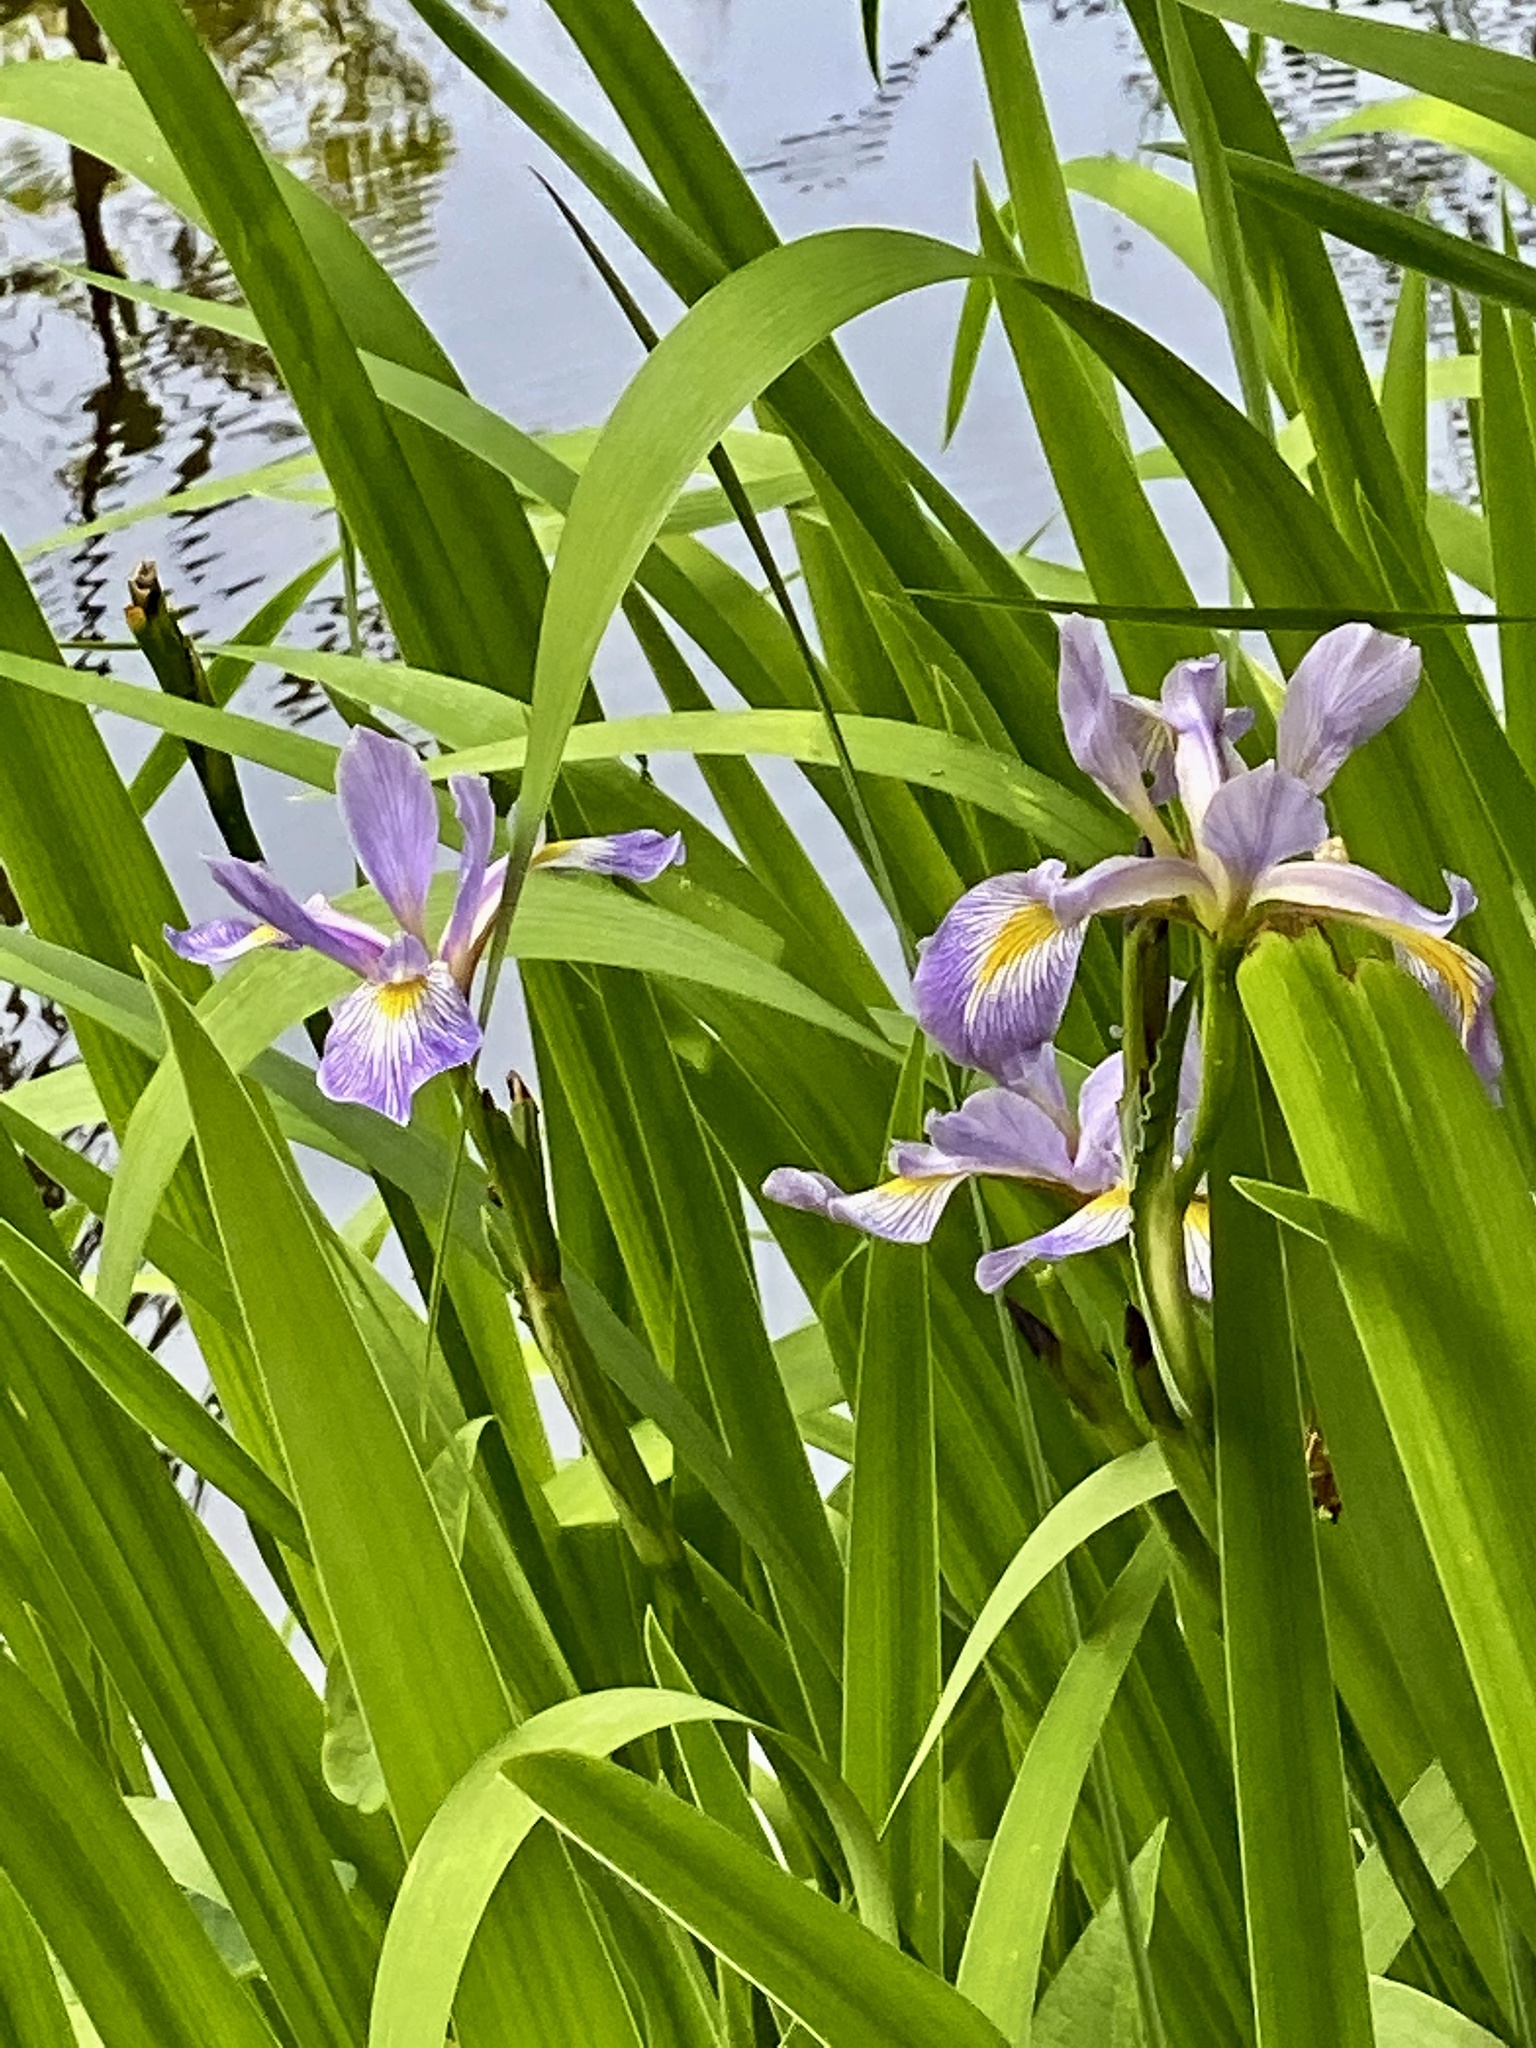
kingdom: Plantae
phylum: Tracheophyta
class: Liliopsida
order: Asparagales
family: Iridaceae
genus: Iris
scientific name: Iris versicolor
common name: Purple iris
